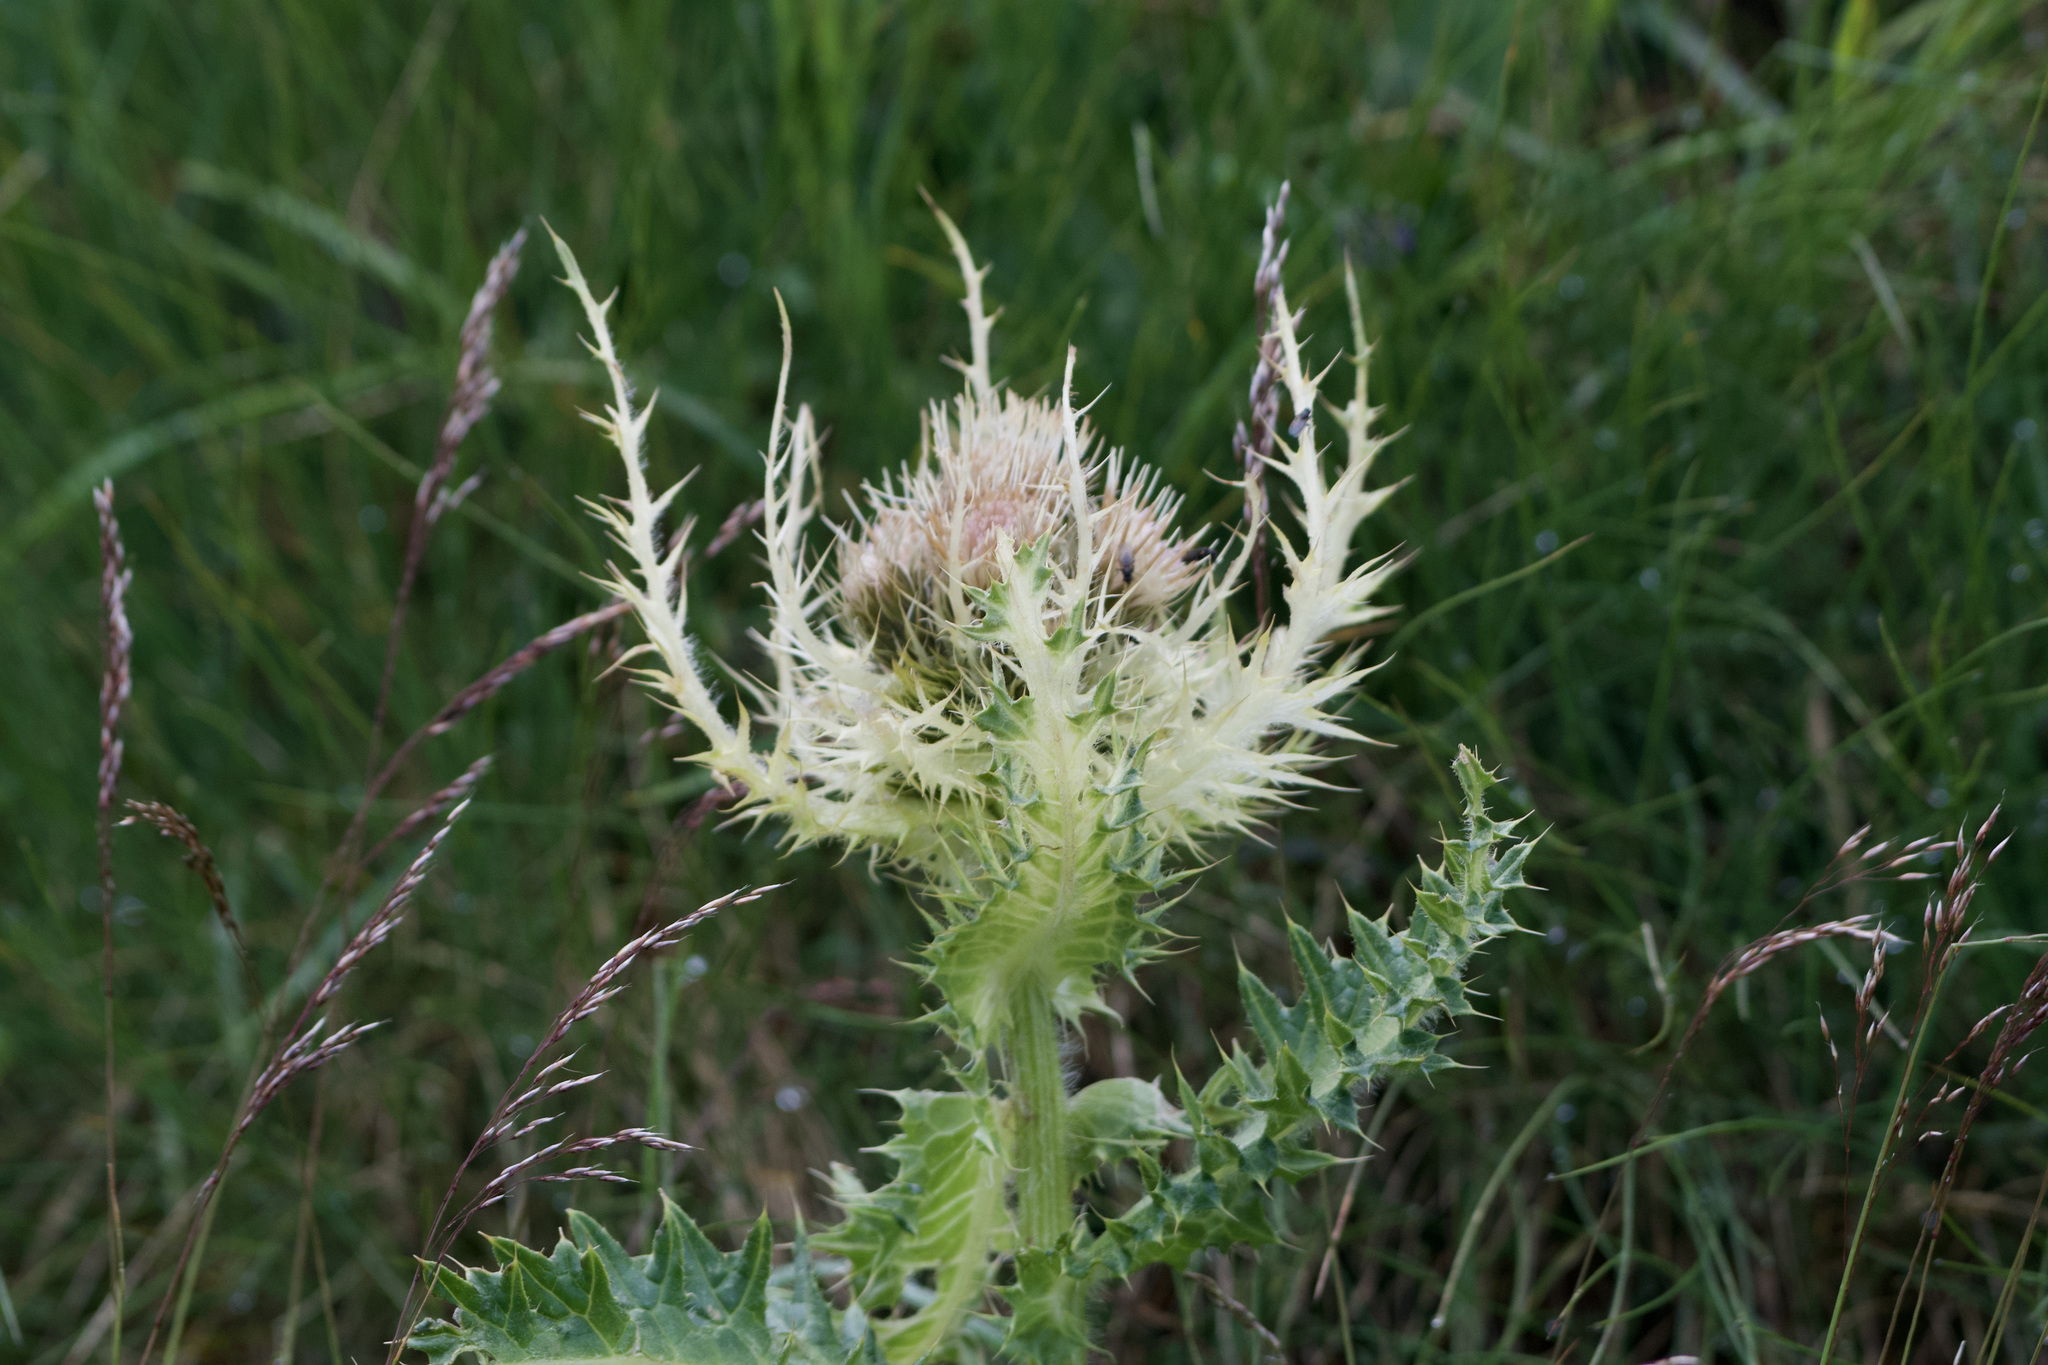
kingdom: Plantae
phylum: Tracheophyta
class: Magnoliopsida
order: Asterales
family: Asteraceae
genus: Cirsium
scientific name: Cirsium spinosissimum
